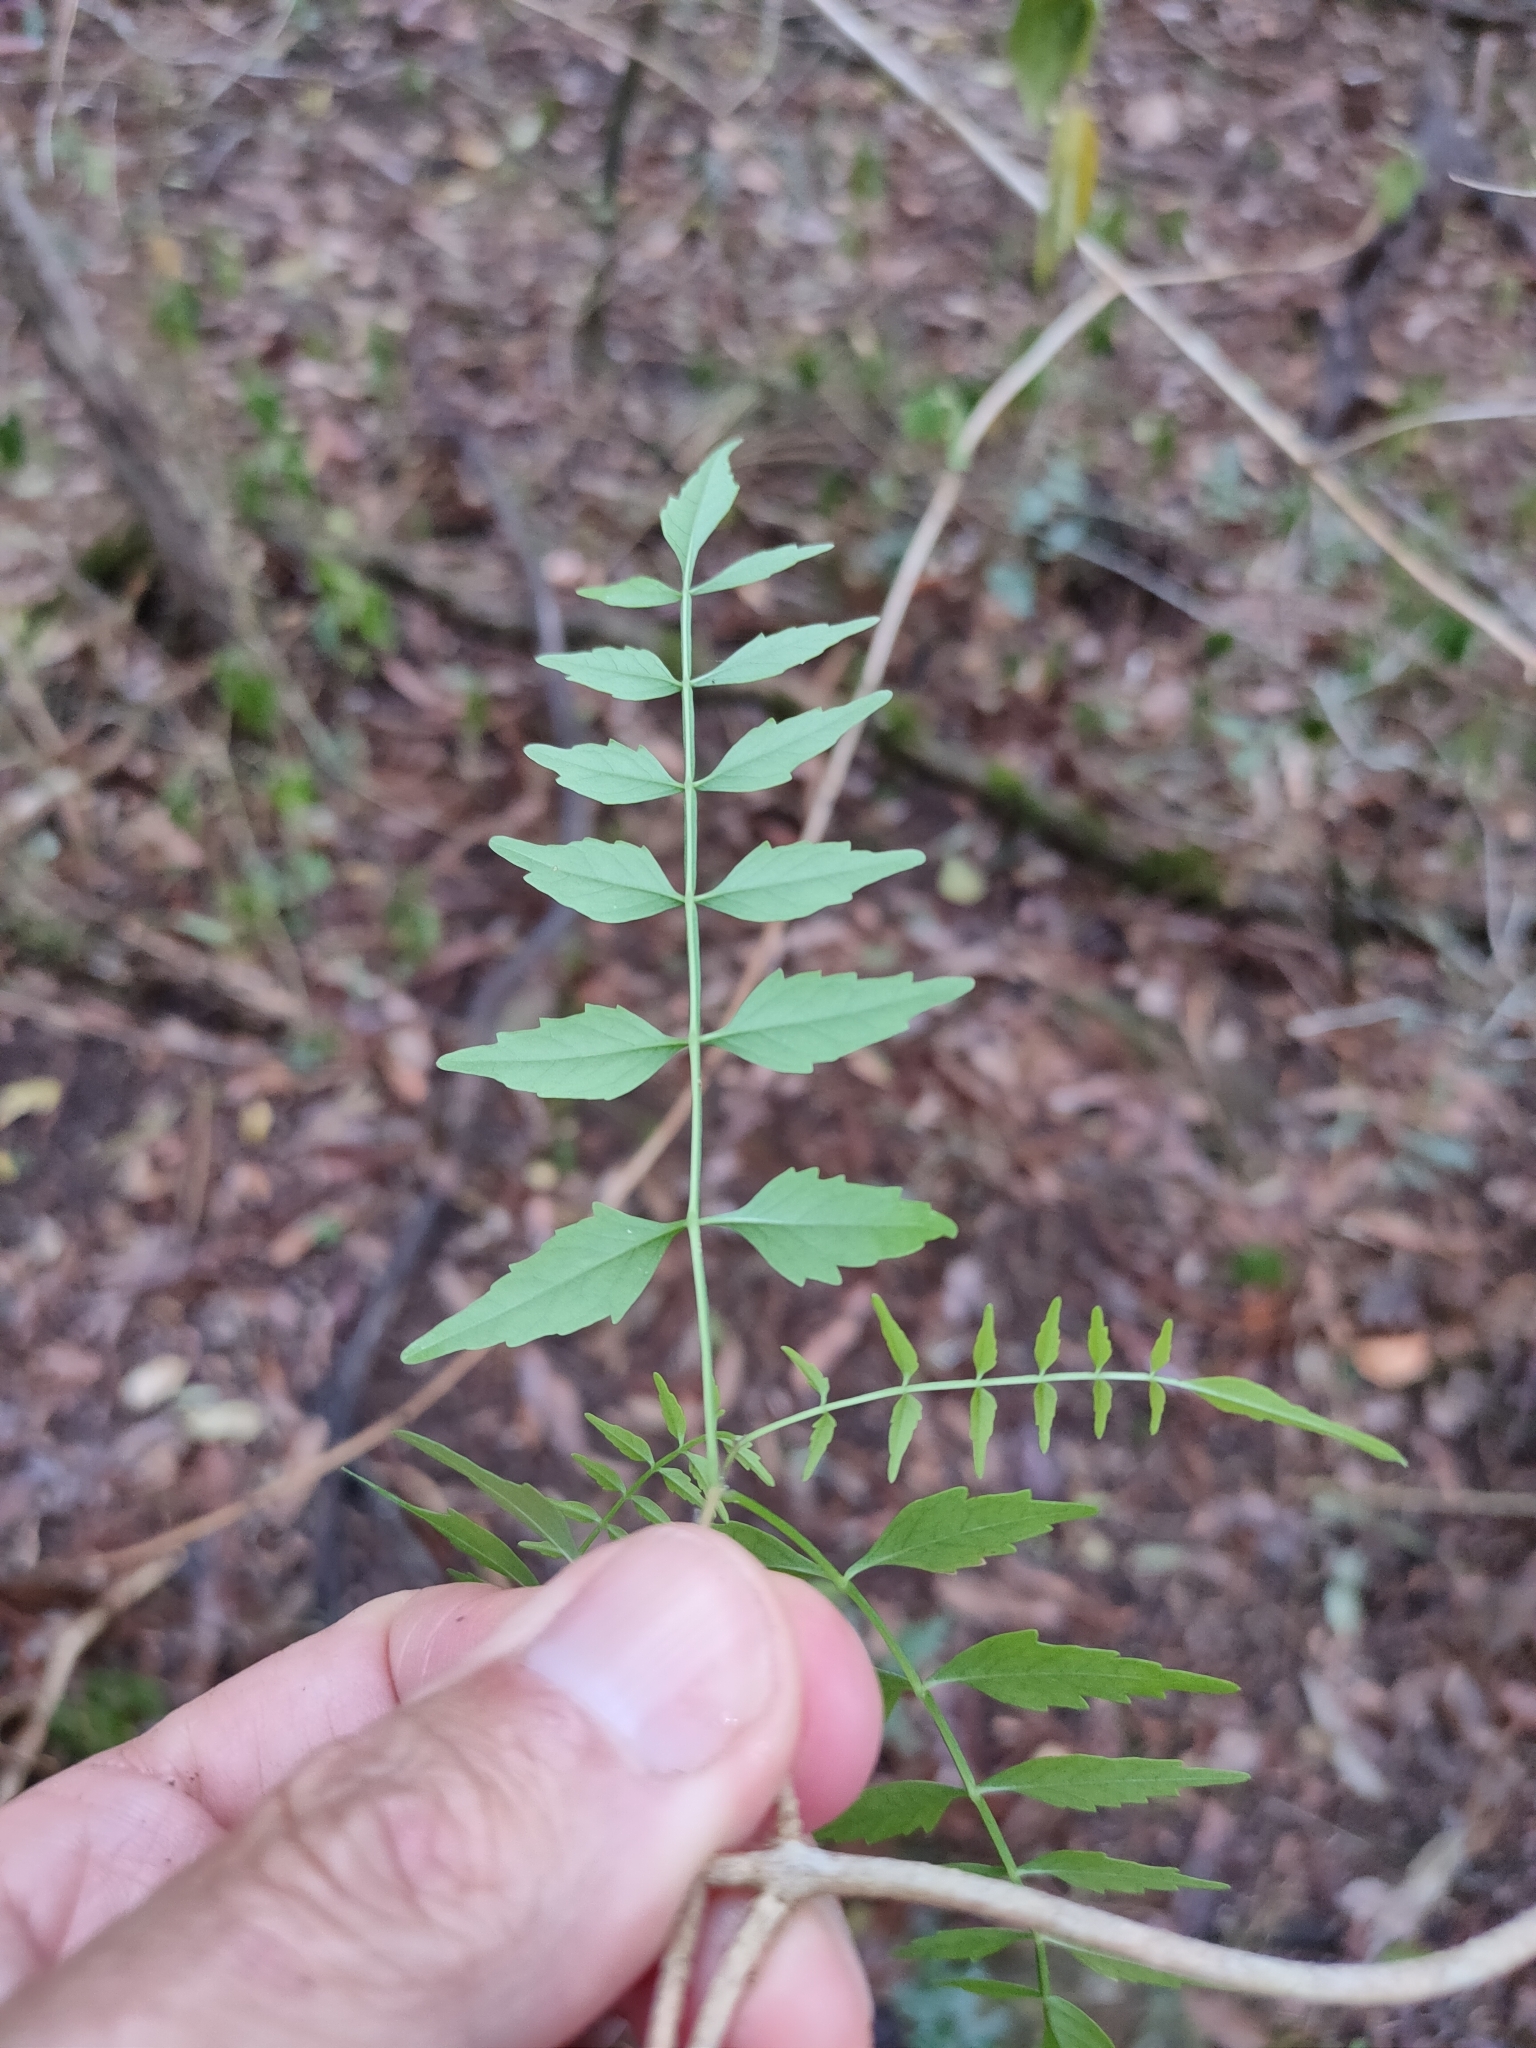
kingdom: Plantae
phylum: Tracheophyta
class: Magnoliopsida
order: Lamiales
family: Bignoniaceae
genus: Pandorea
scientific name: Pandorea pandorana
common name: Wonga-wonga-vine
